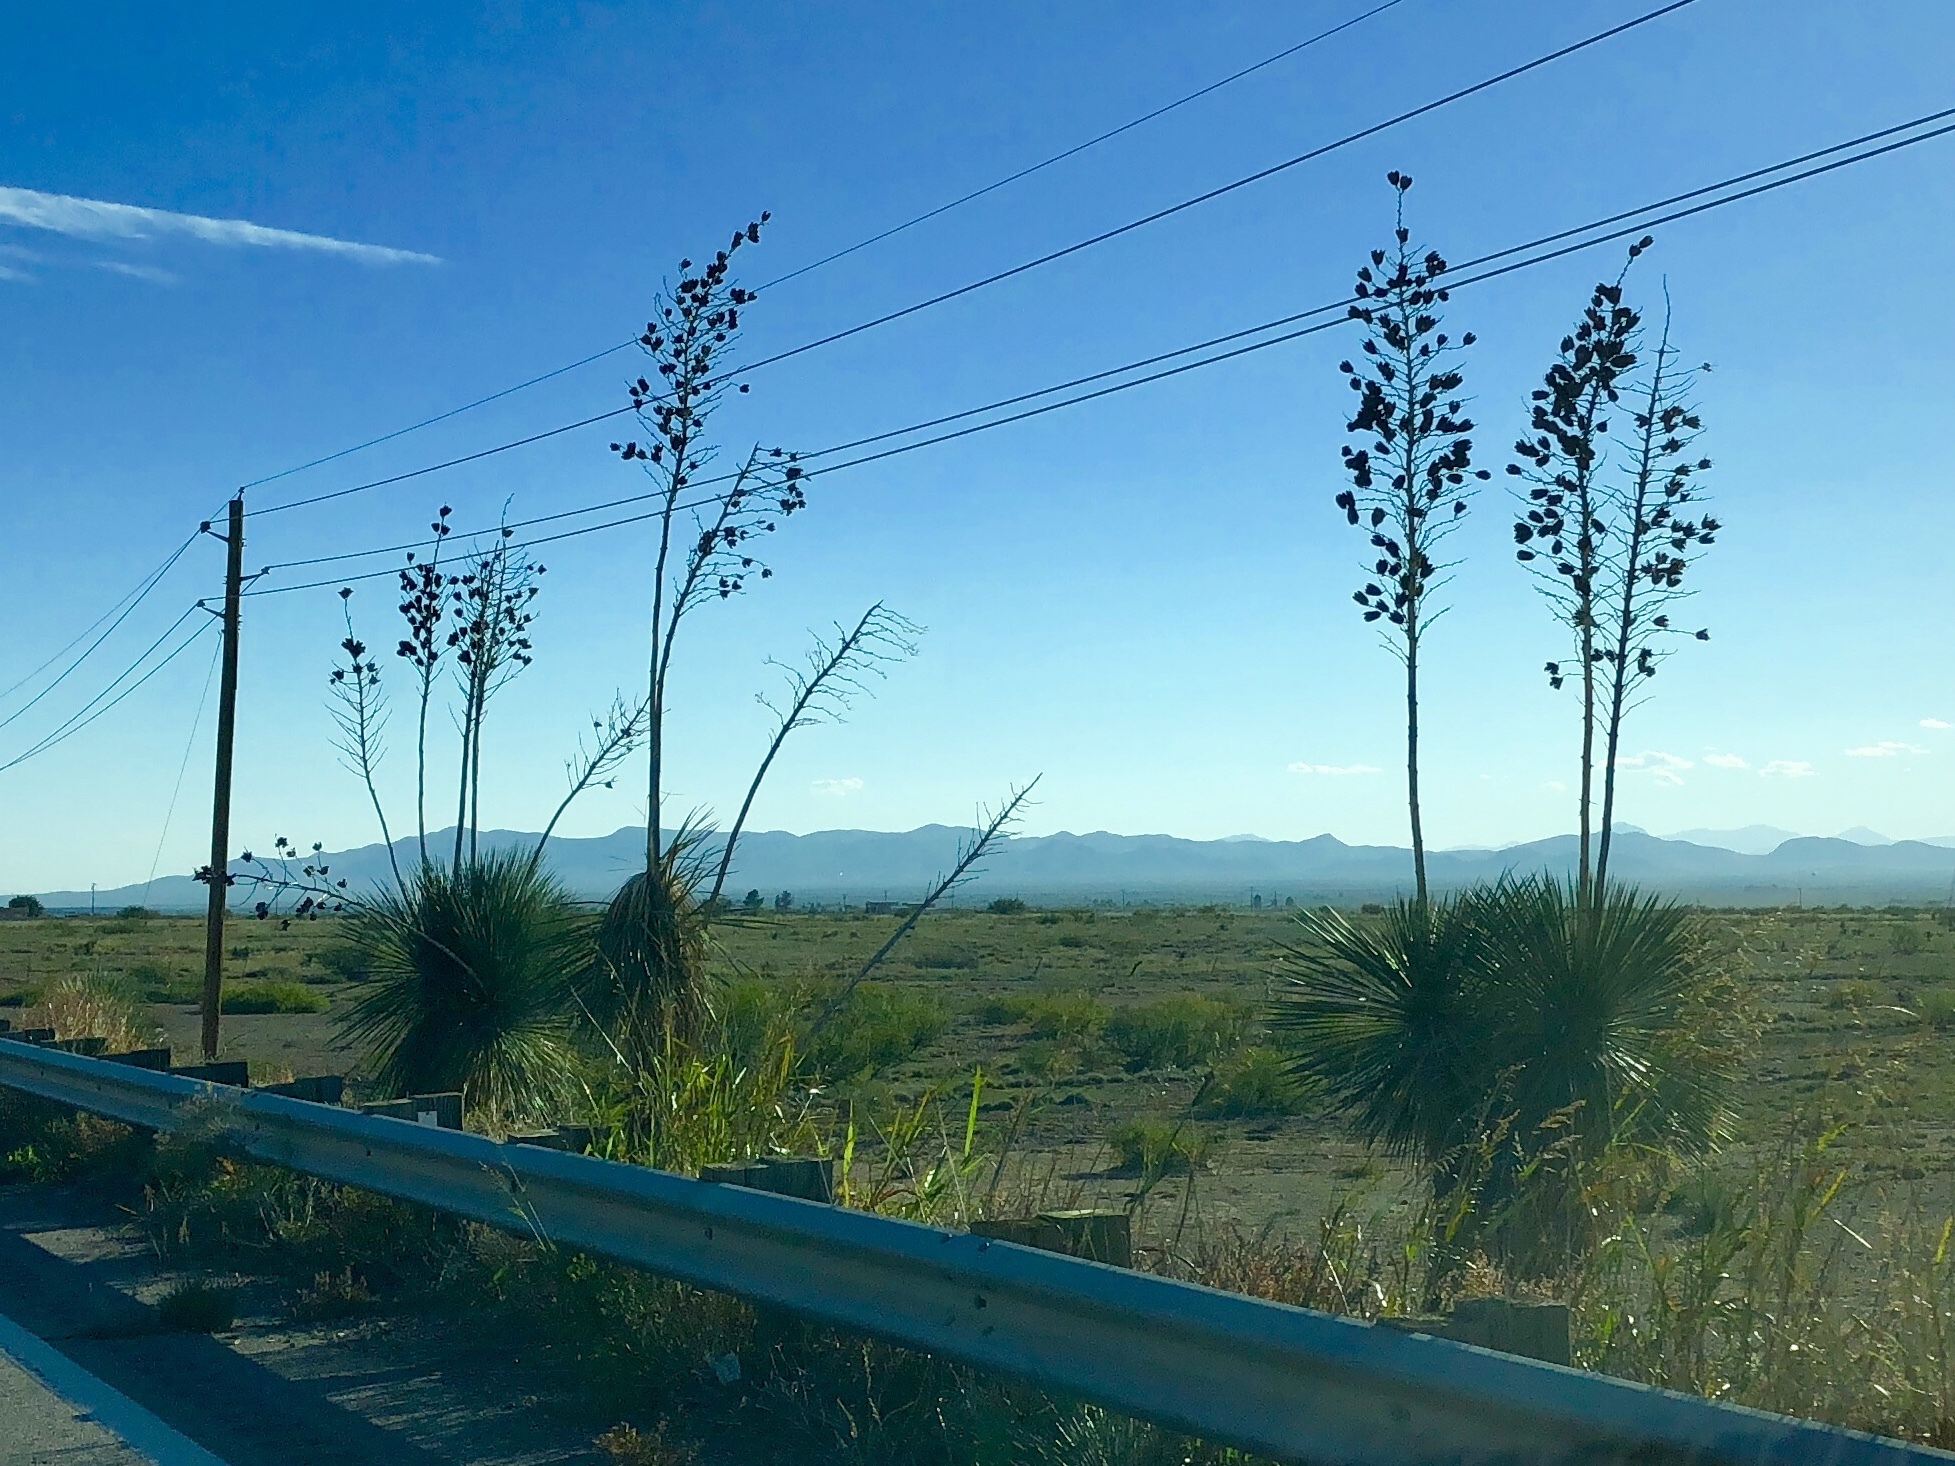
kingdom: Plantae
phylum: Tracheophyta
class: Liliopsida
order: Asparagales
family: Asparagaceae
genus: Yucca
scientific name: Yucca elata
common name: Palmella
